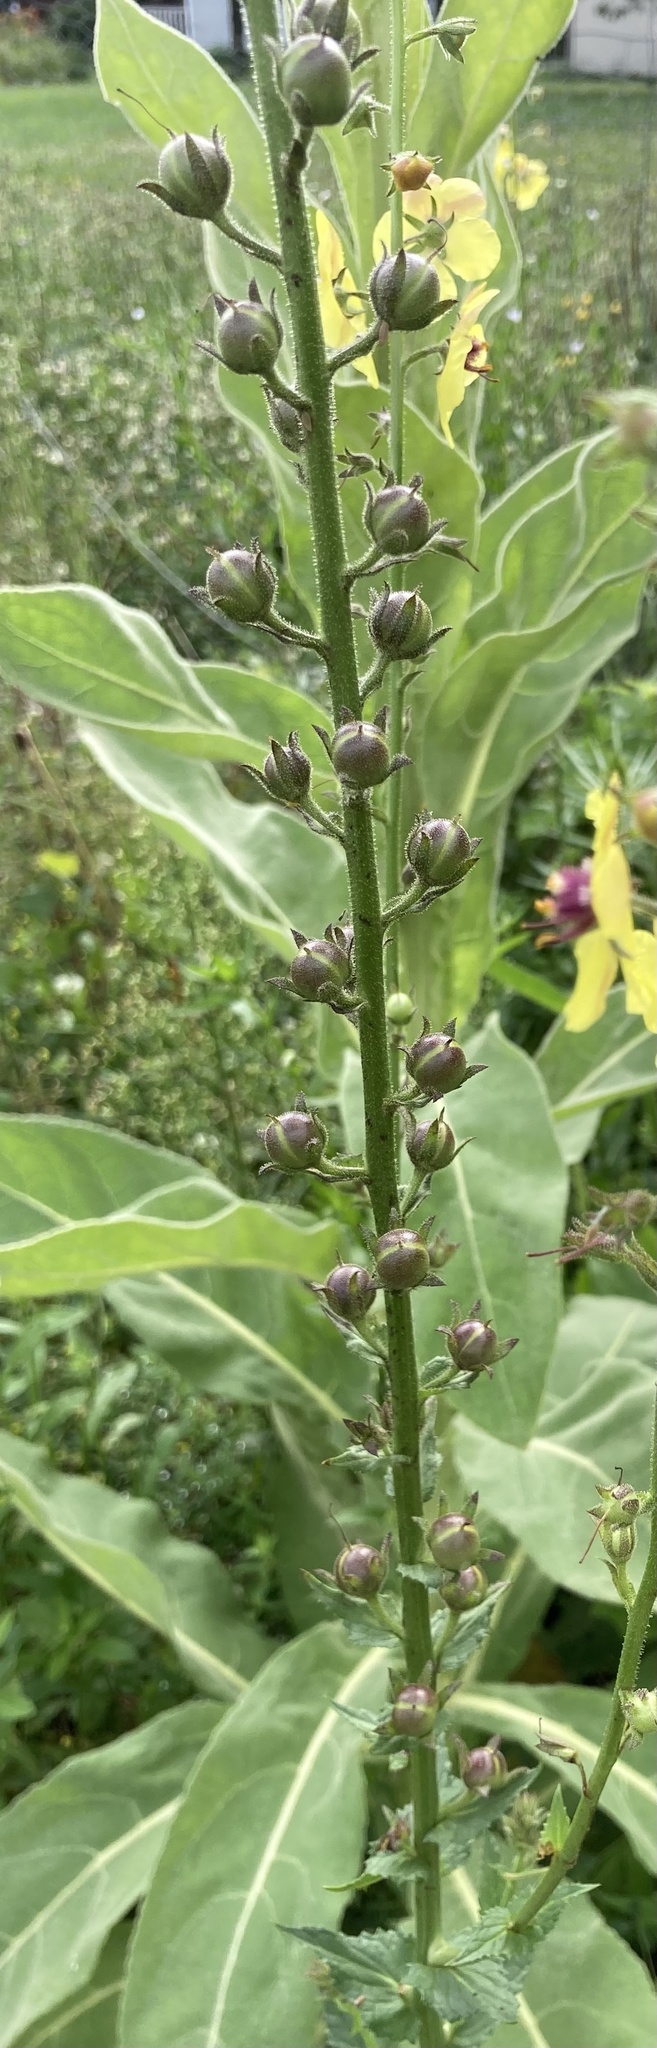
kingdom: Plantae
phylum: Tracheophyta
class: Magnoliopsida
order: Lamiales
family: Scrophulariaceae
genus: Verbascum
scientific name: Verbascum blattaria
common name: Moth mullein
